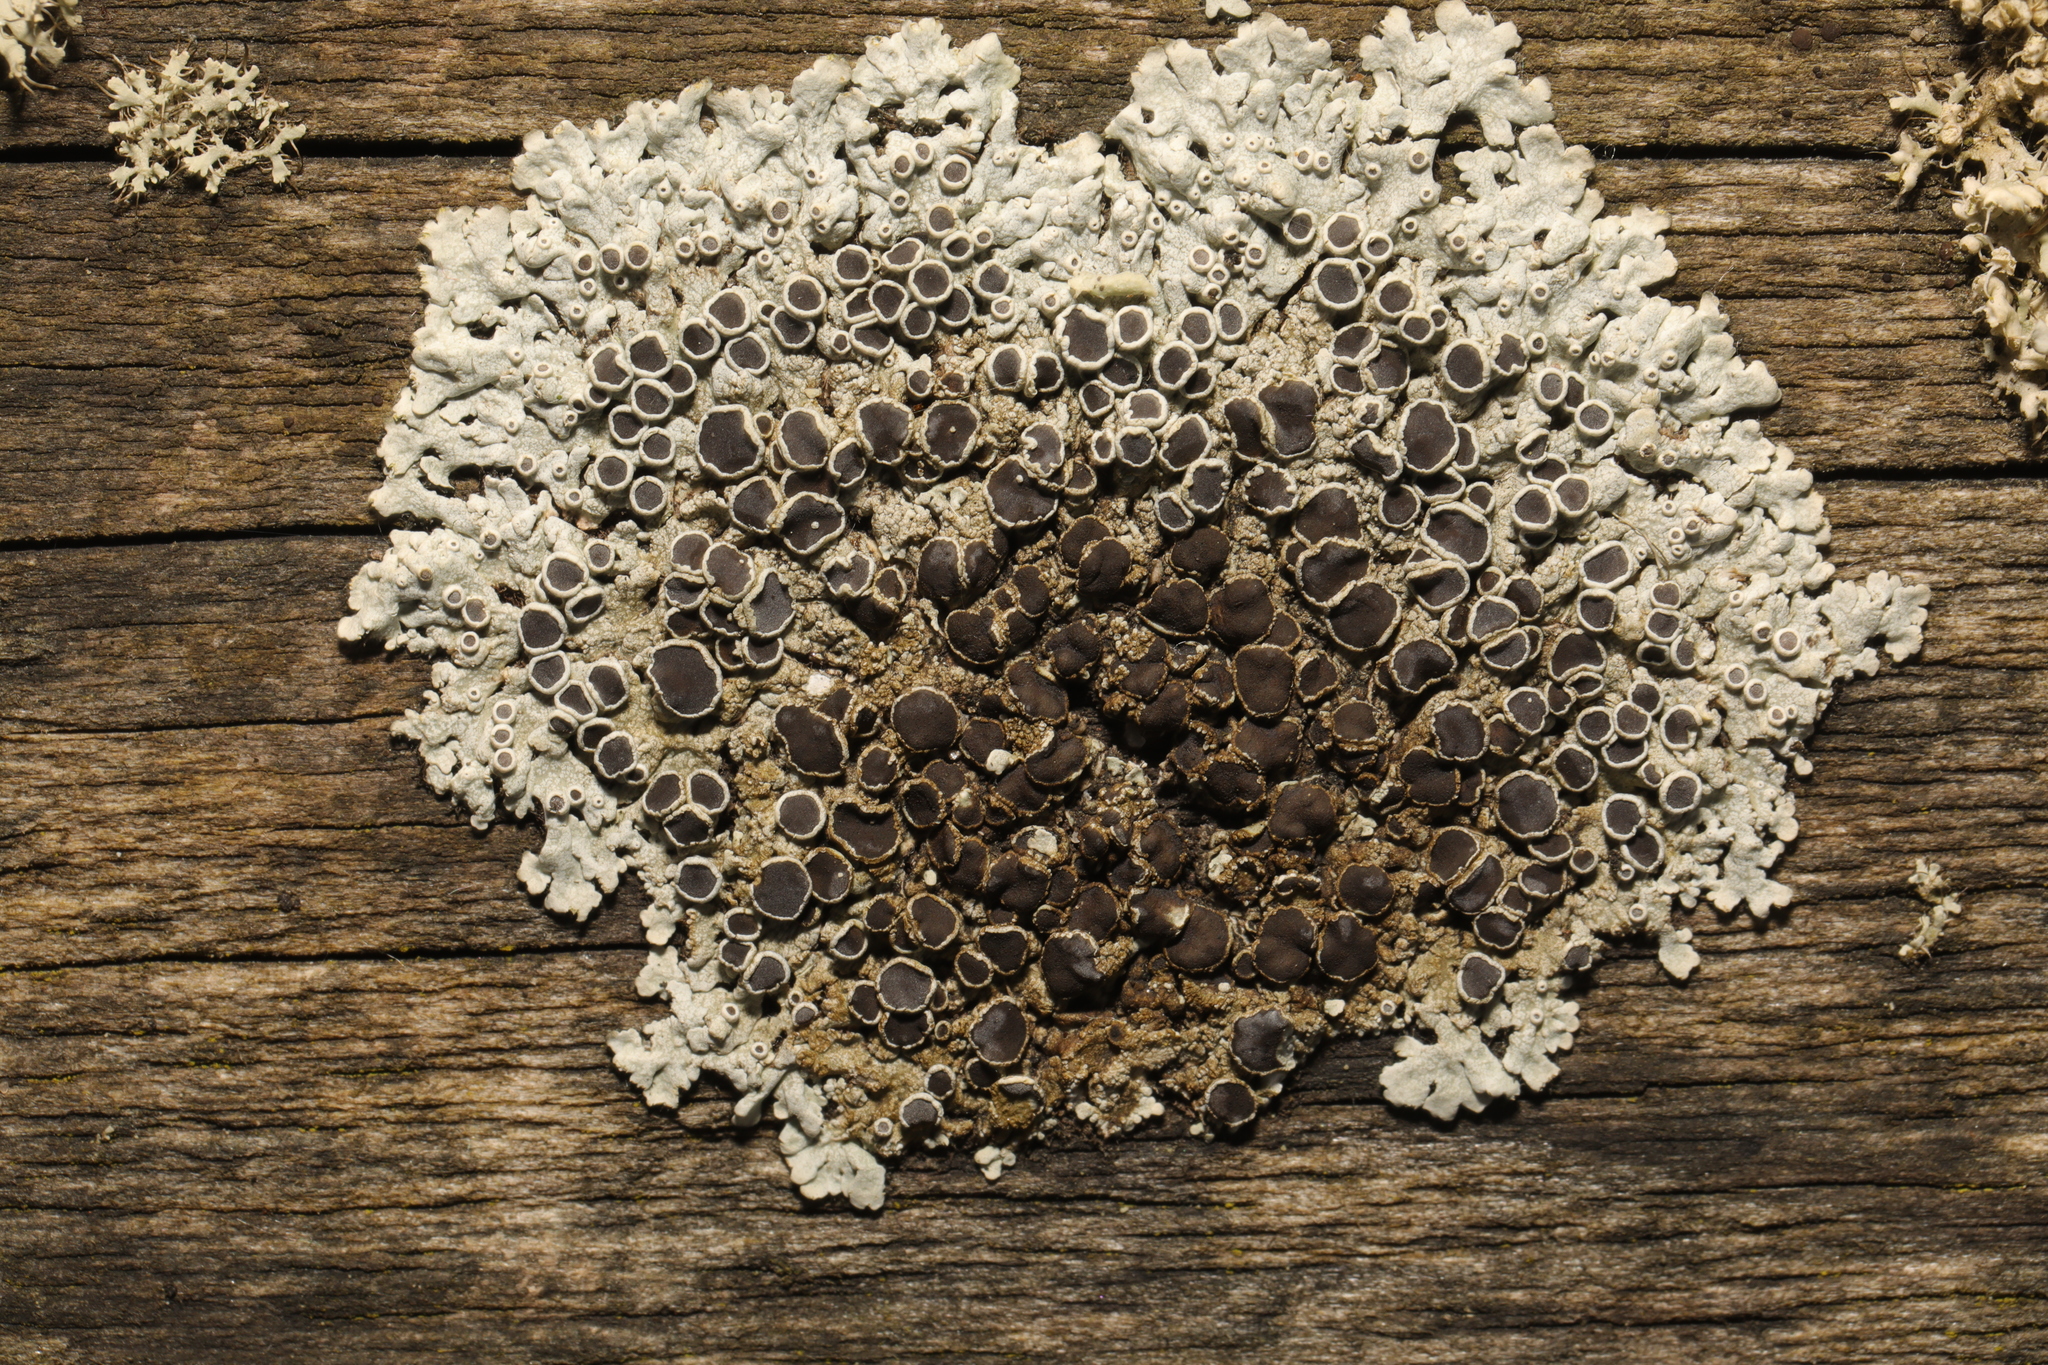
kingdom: Fungi
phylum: Ascomycota
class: Lecanoromycetes
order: Caliciales
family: Physciaceae
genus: Physcia
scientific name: Physcia aipolia
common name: Hoary rosette lichen
